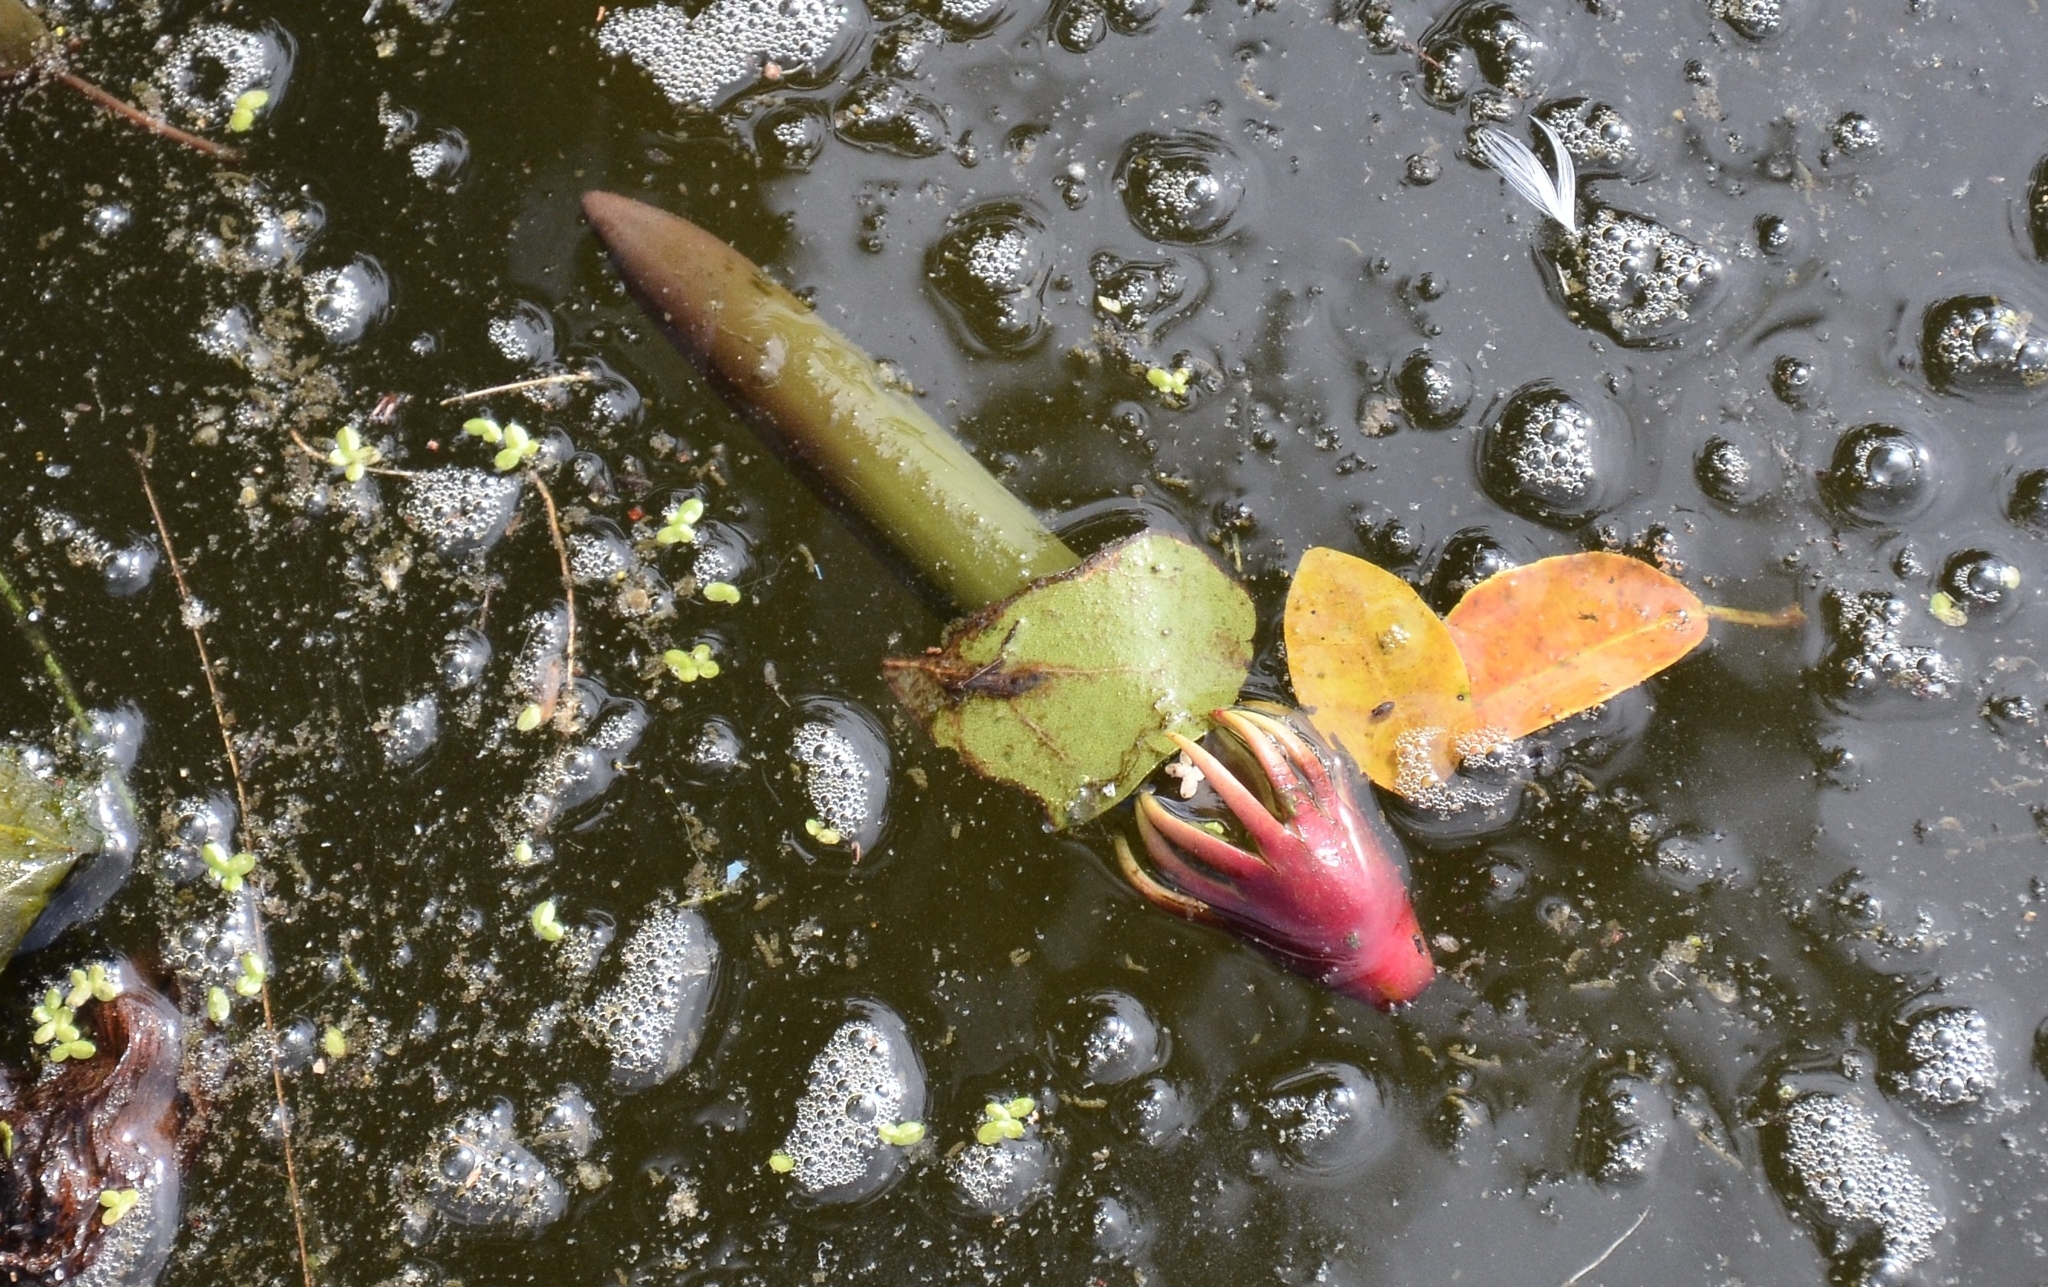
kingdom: Plantae
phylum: Tracheophyta
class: Magnoliopsida
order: Malpighiales
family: Rhizophoraceae
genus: Bruguiera
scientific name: Bruguiera gymnorhiza
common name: Oriental mangrove
